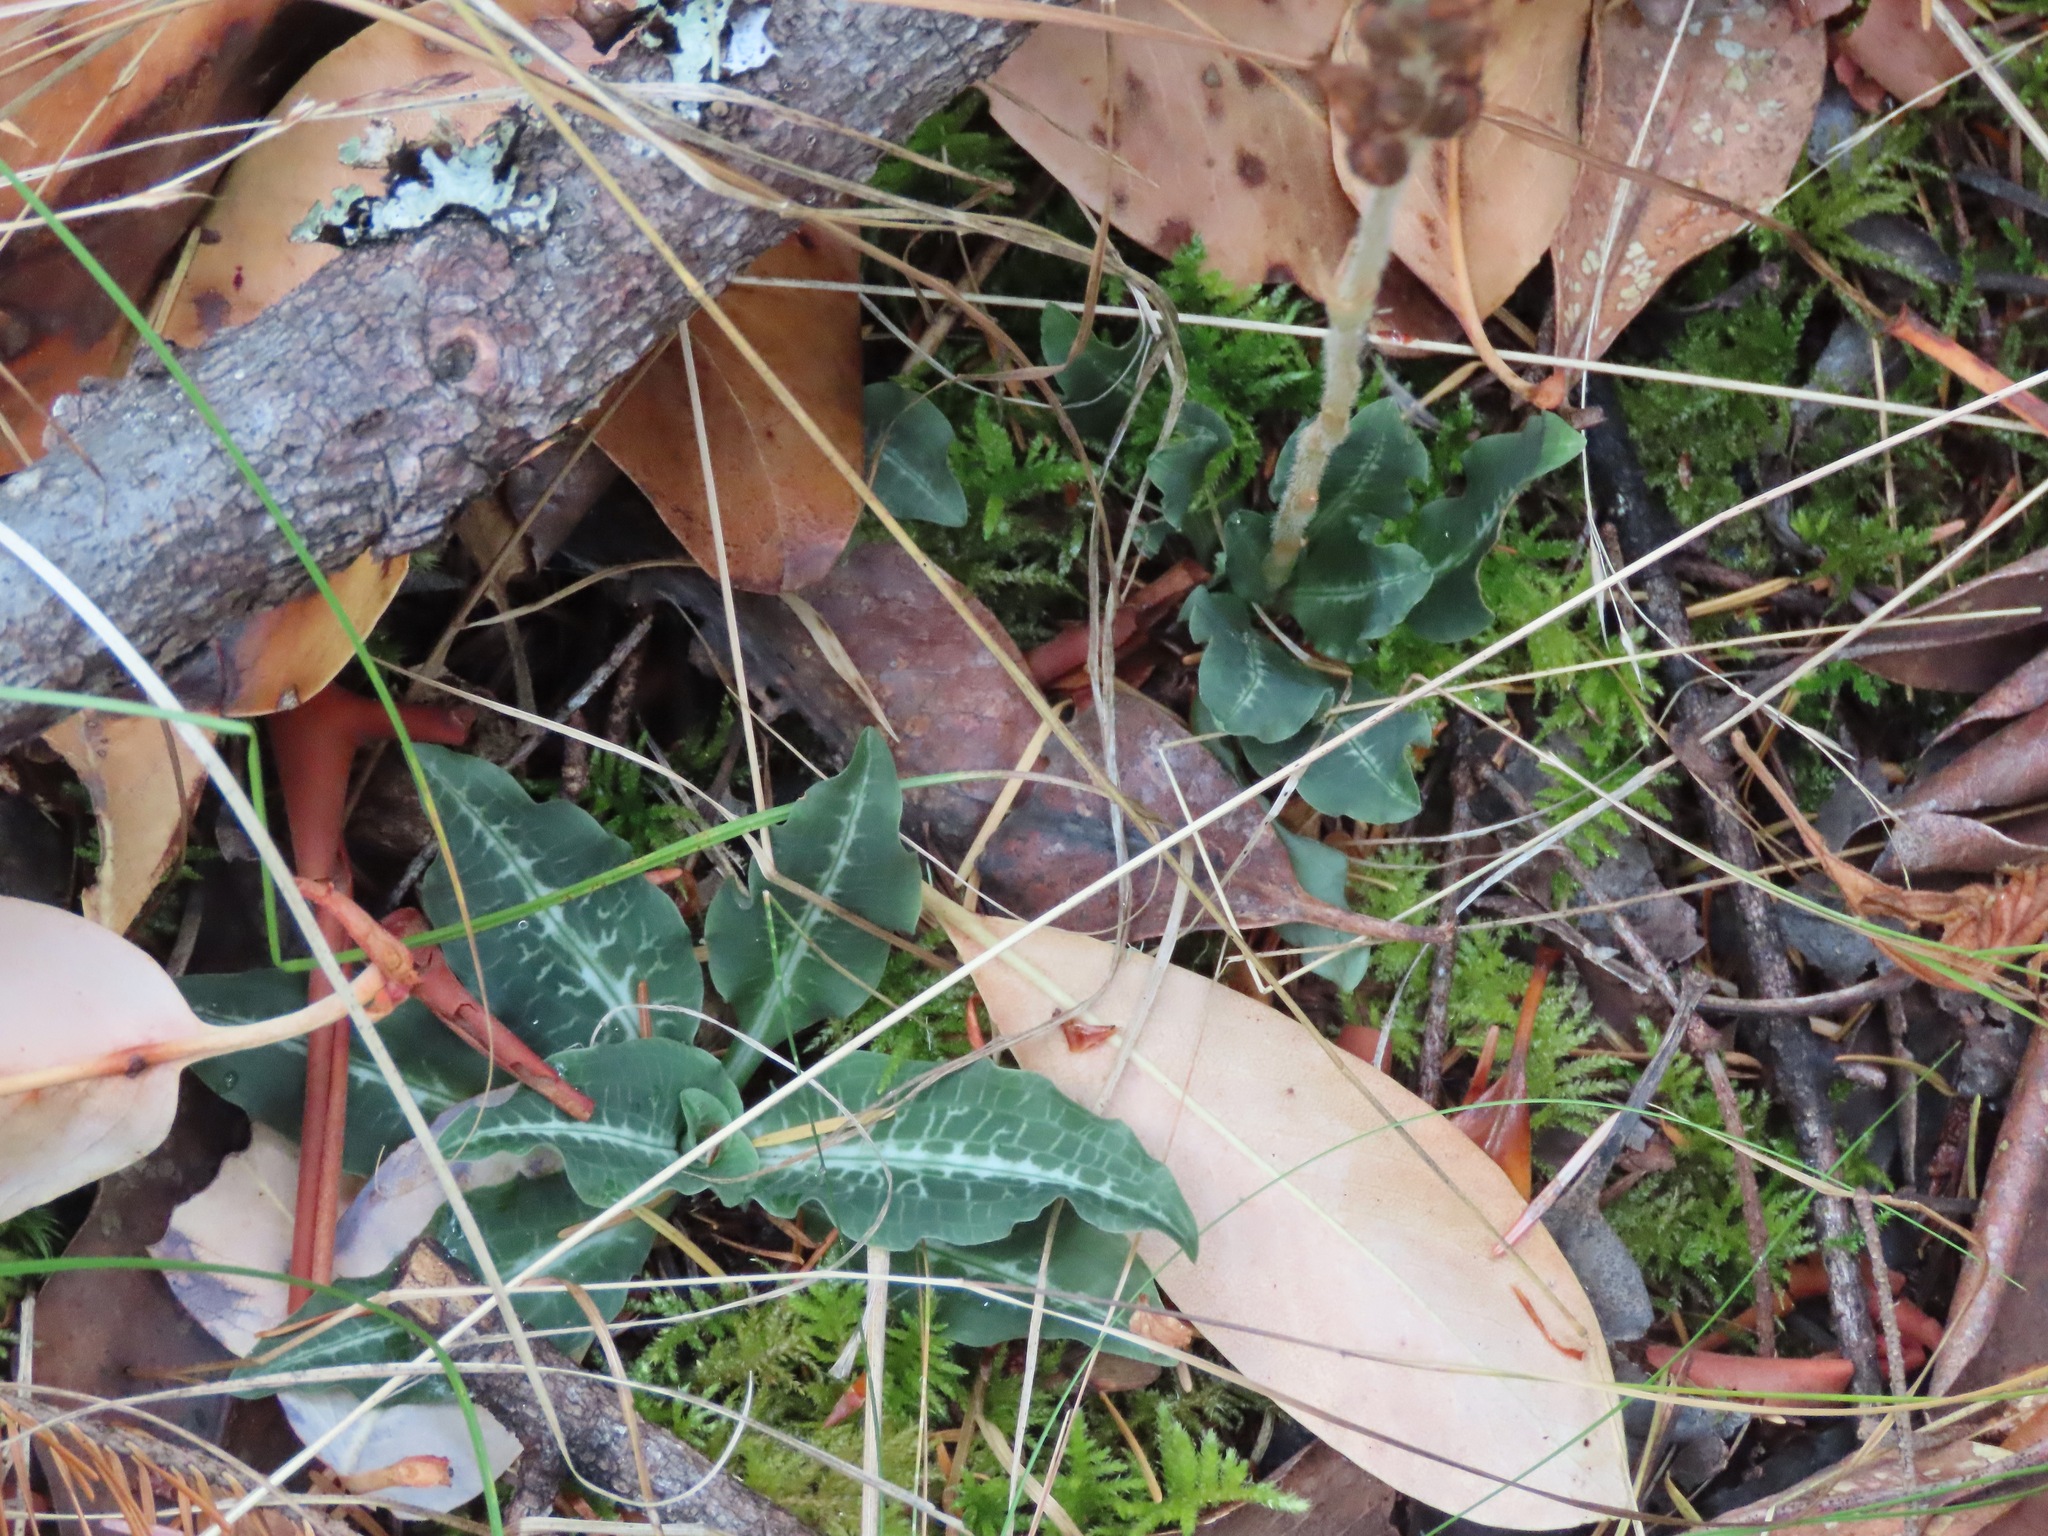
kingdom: Plantae
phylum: Tracheophyta
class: Liliopsida
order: Asparagales
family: Orchidaceae
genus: Goodyera
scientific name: Goodyera oblongifolia
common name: Giant rattlesnake-plantain
